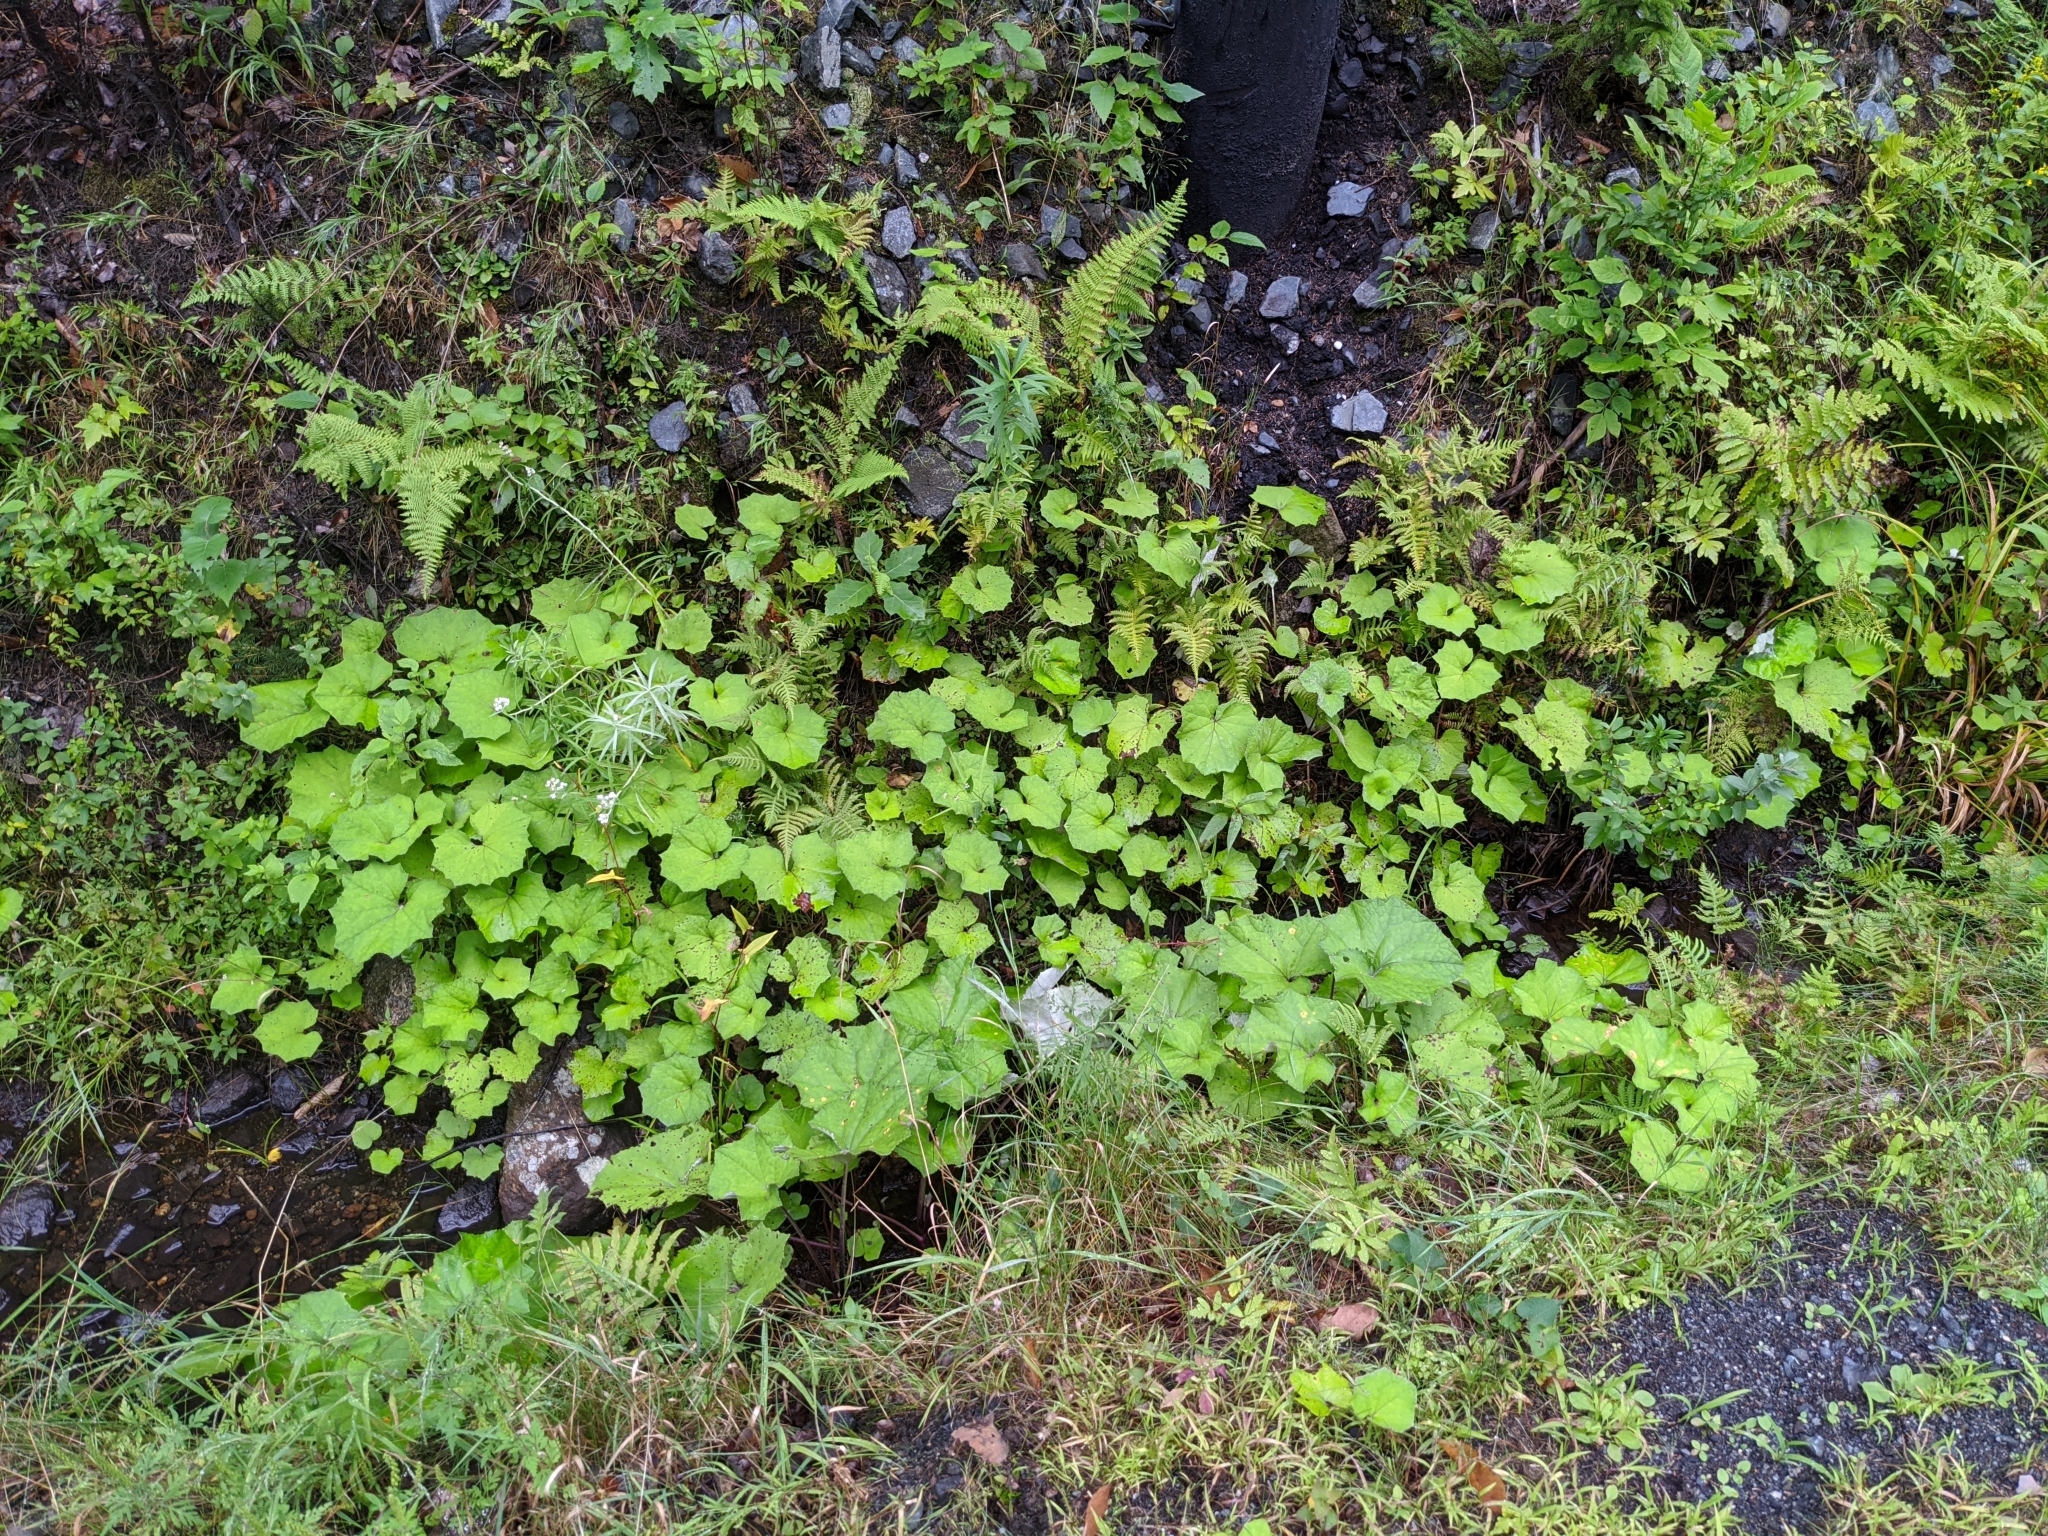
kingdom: Plantae
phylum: Tracheophyta
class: Magnoliopsida
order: Asterales
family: Asteraceae
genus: Tussilago
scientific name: Tussilago farfara
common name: Coltsfoot
